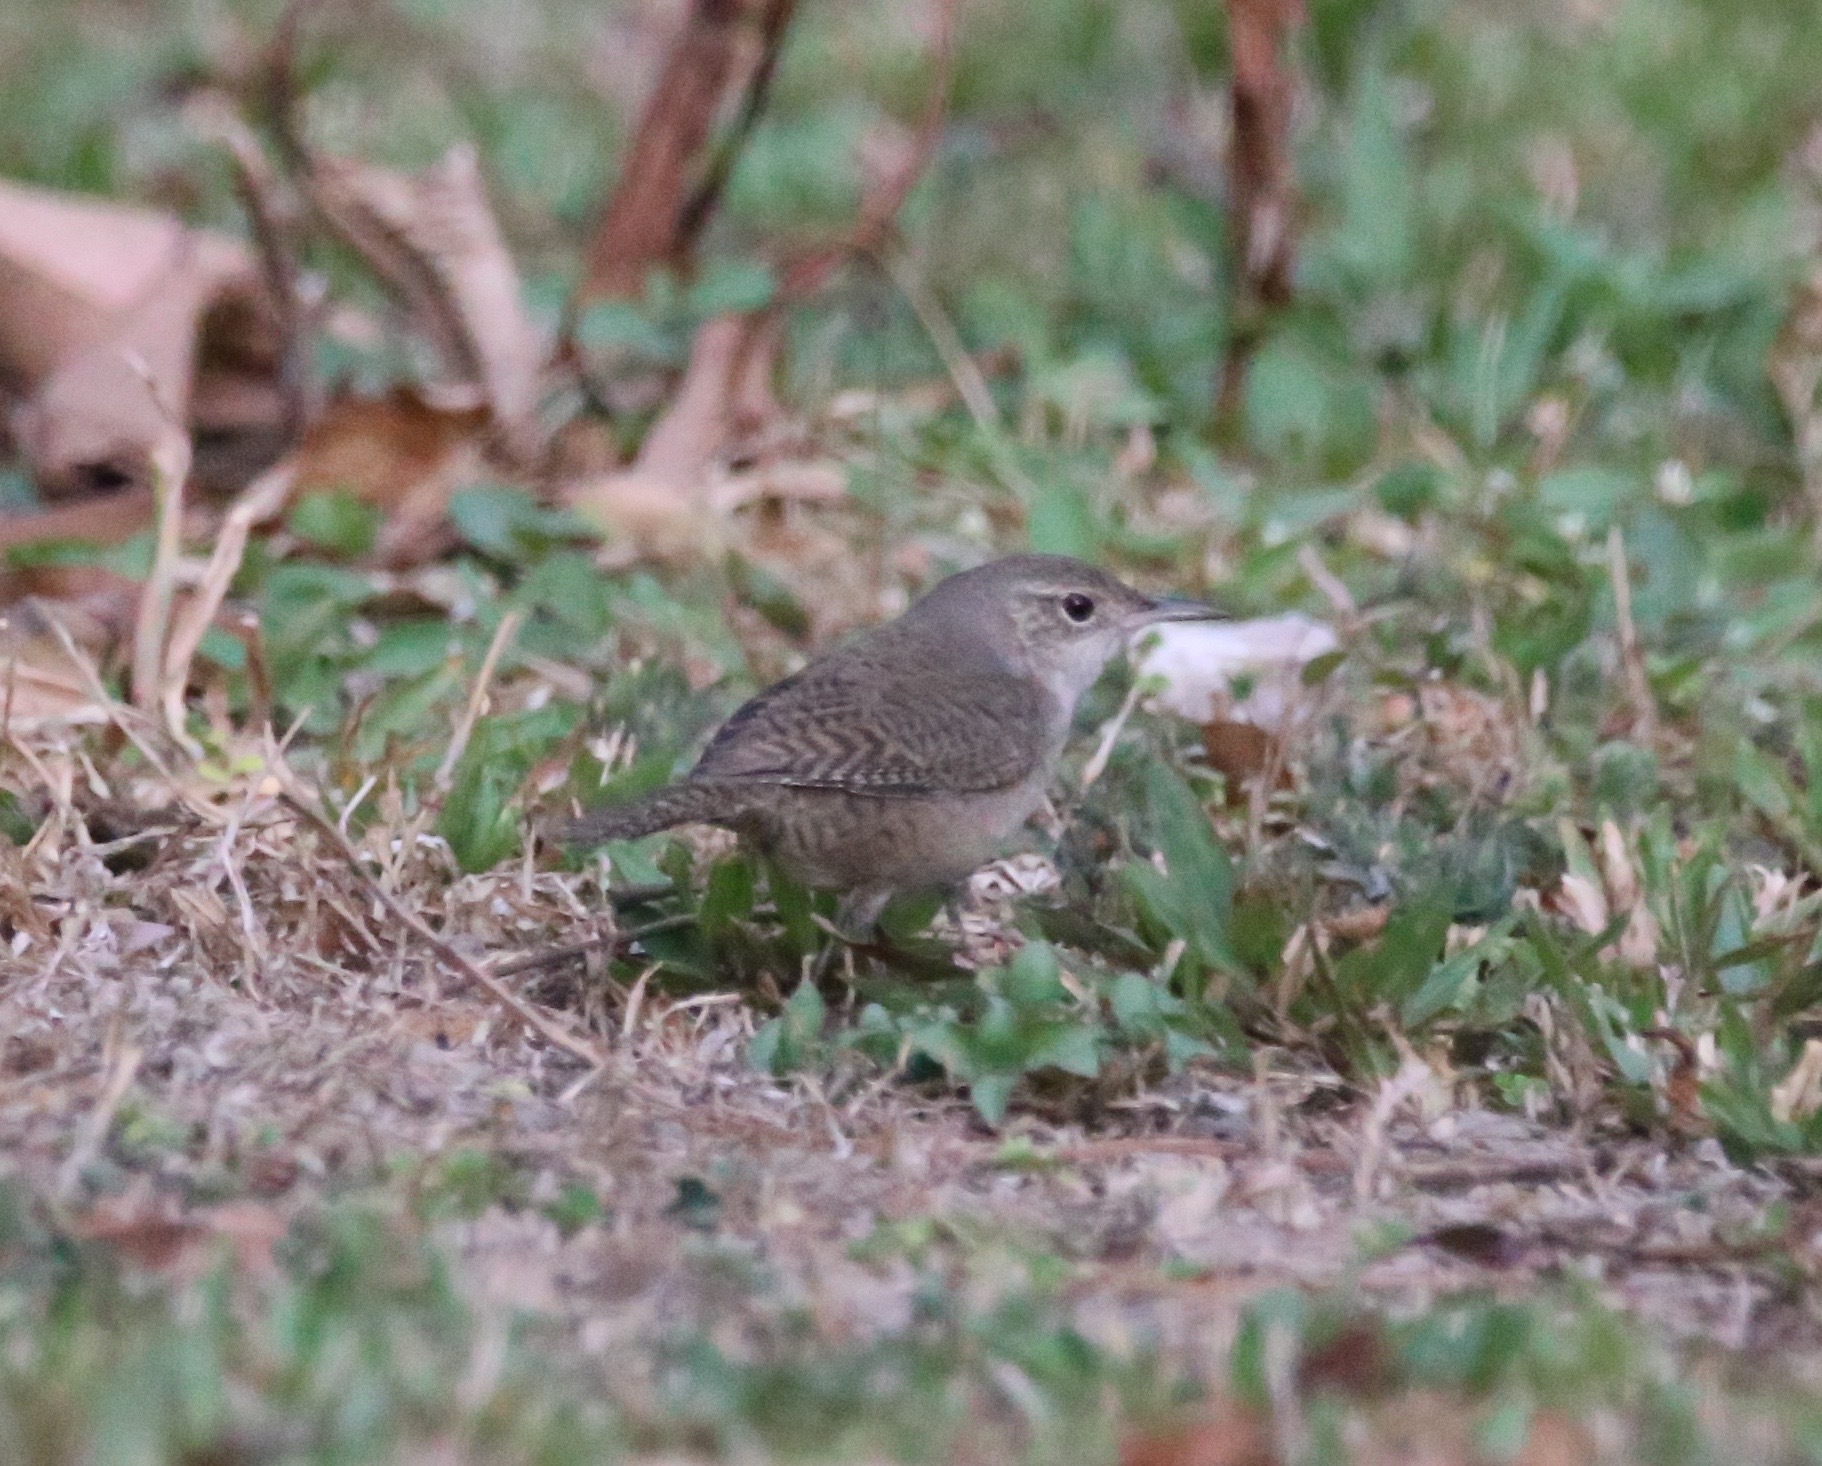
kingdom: Animalia
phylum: Chordata
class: Aves
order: Passeriformes
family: Troglodytidae
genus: Troglodytes
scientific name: Troglodytes aedon
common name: House wren
